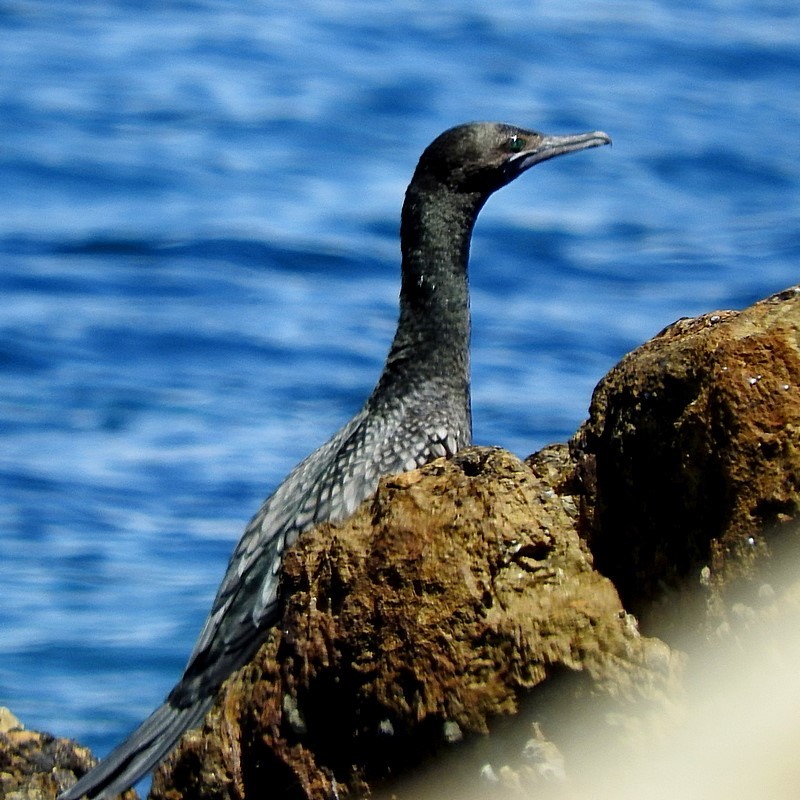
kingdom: Animalia
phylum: Chordata
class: Aves
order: Suliformes
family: Phalacrocoracidae
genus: Phalacrocorax
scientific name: Phalacrocorax sulcirostris
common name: Little black cormorant
